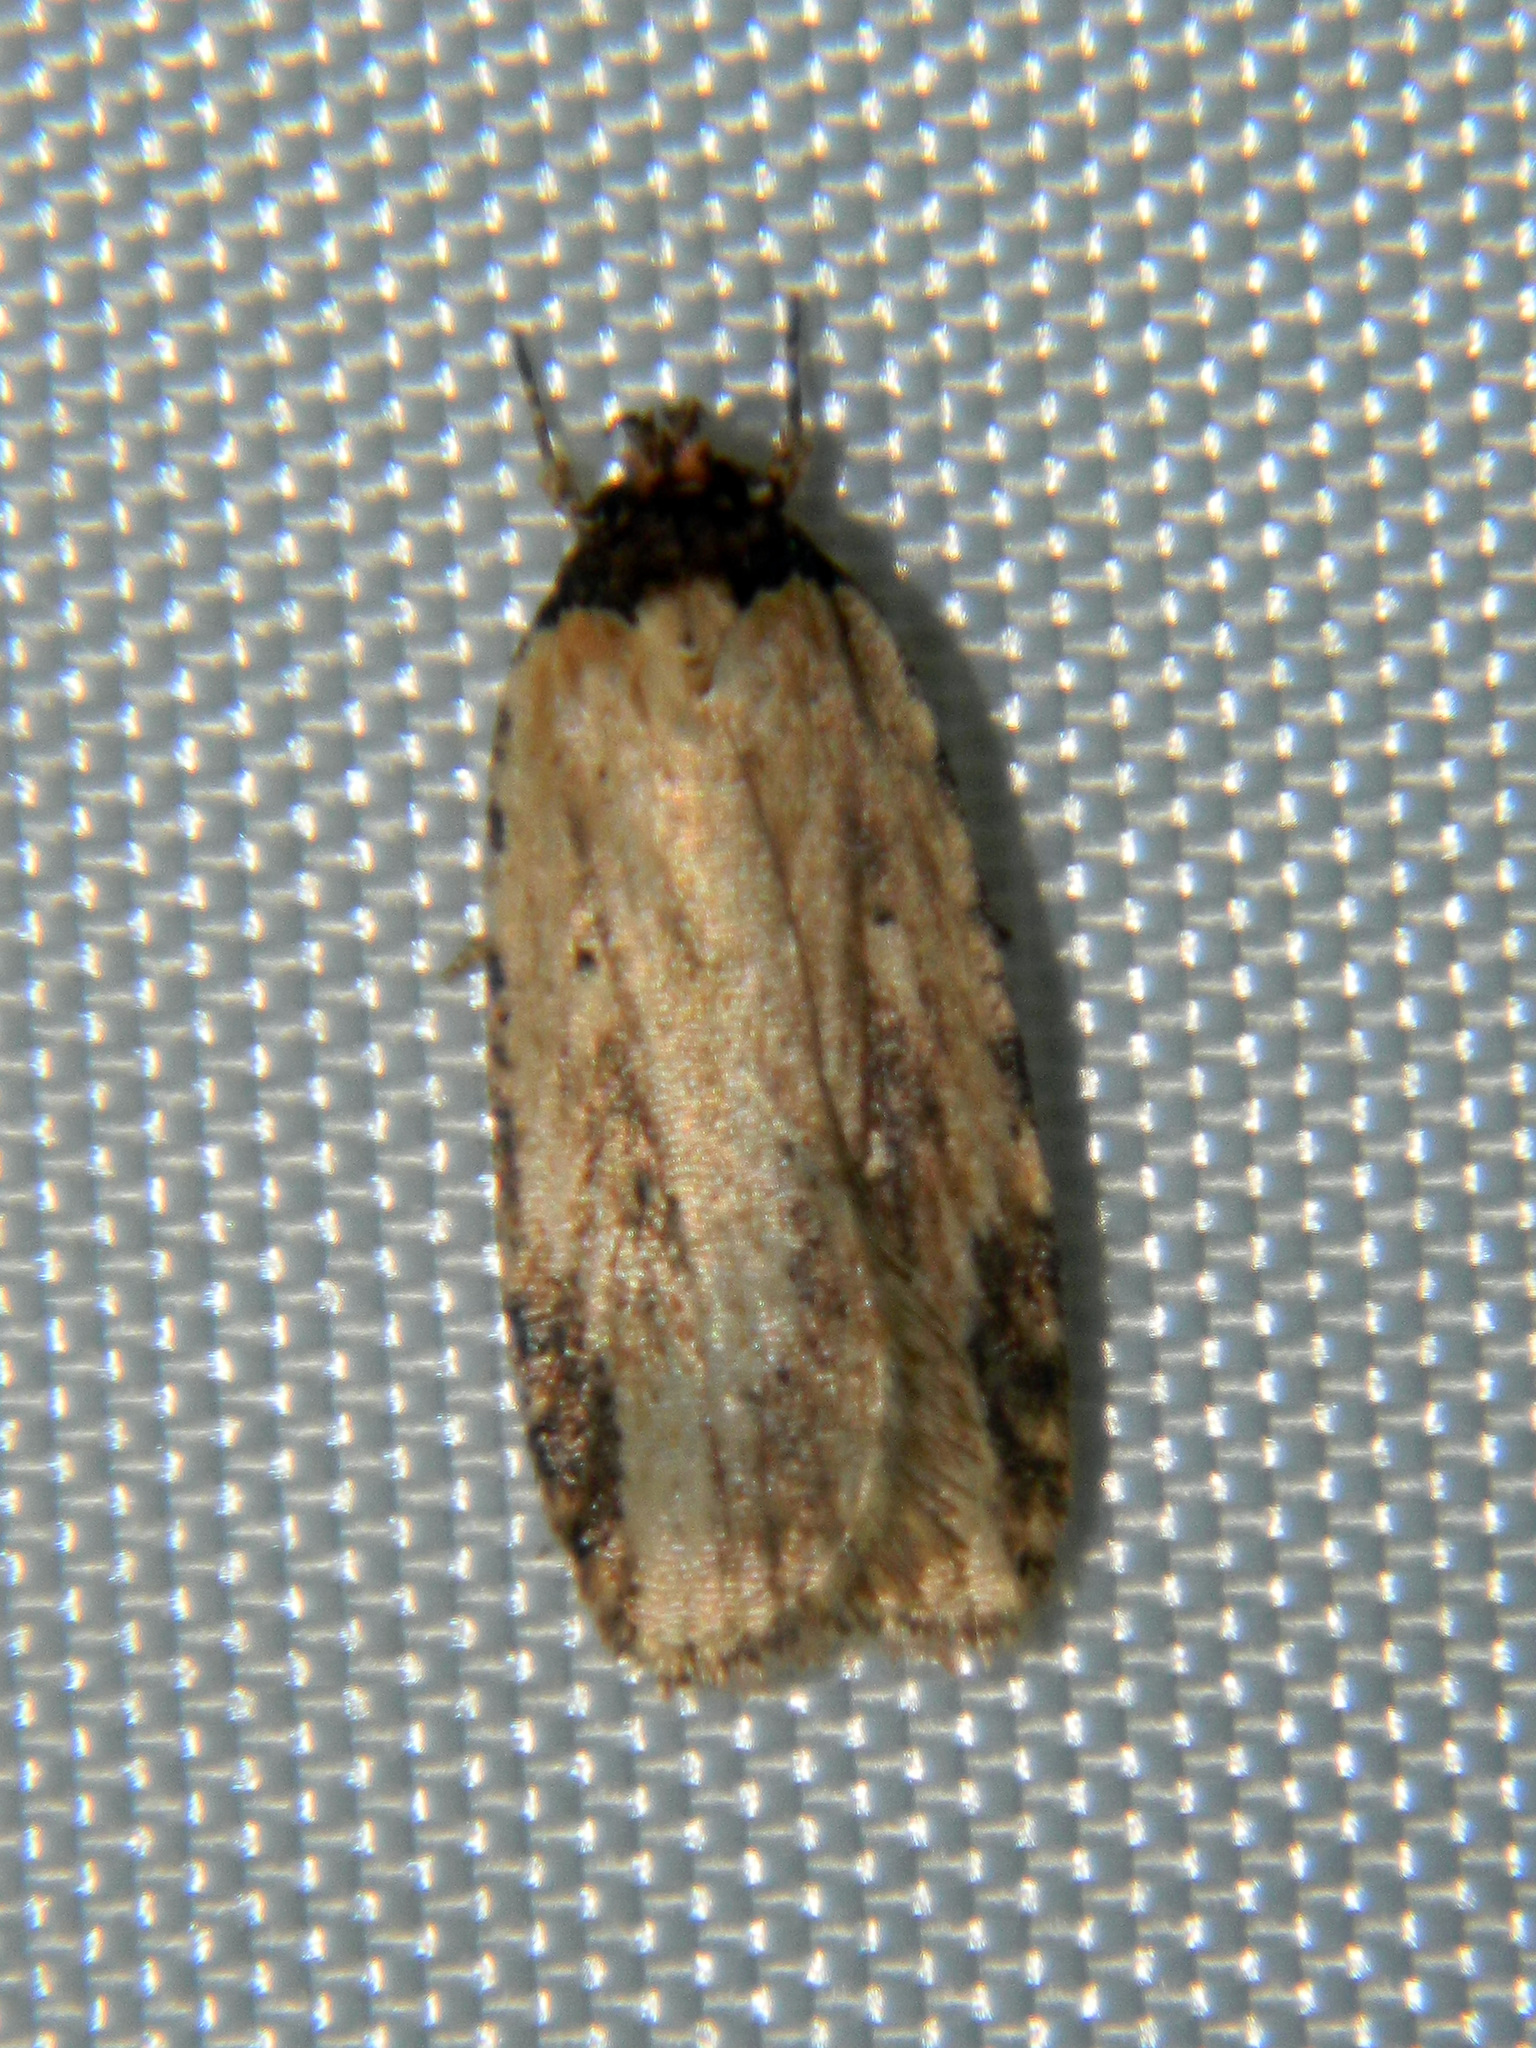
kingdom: Animalia
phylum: Arthropoda
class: Insecta
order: Lepidoptera
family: Depressariidae
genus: Agonopterix
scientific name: Agonopterix atrodorsella
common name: Beggartick leaffolder
